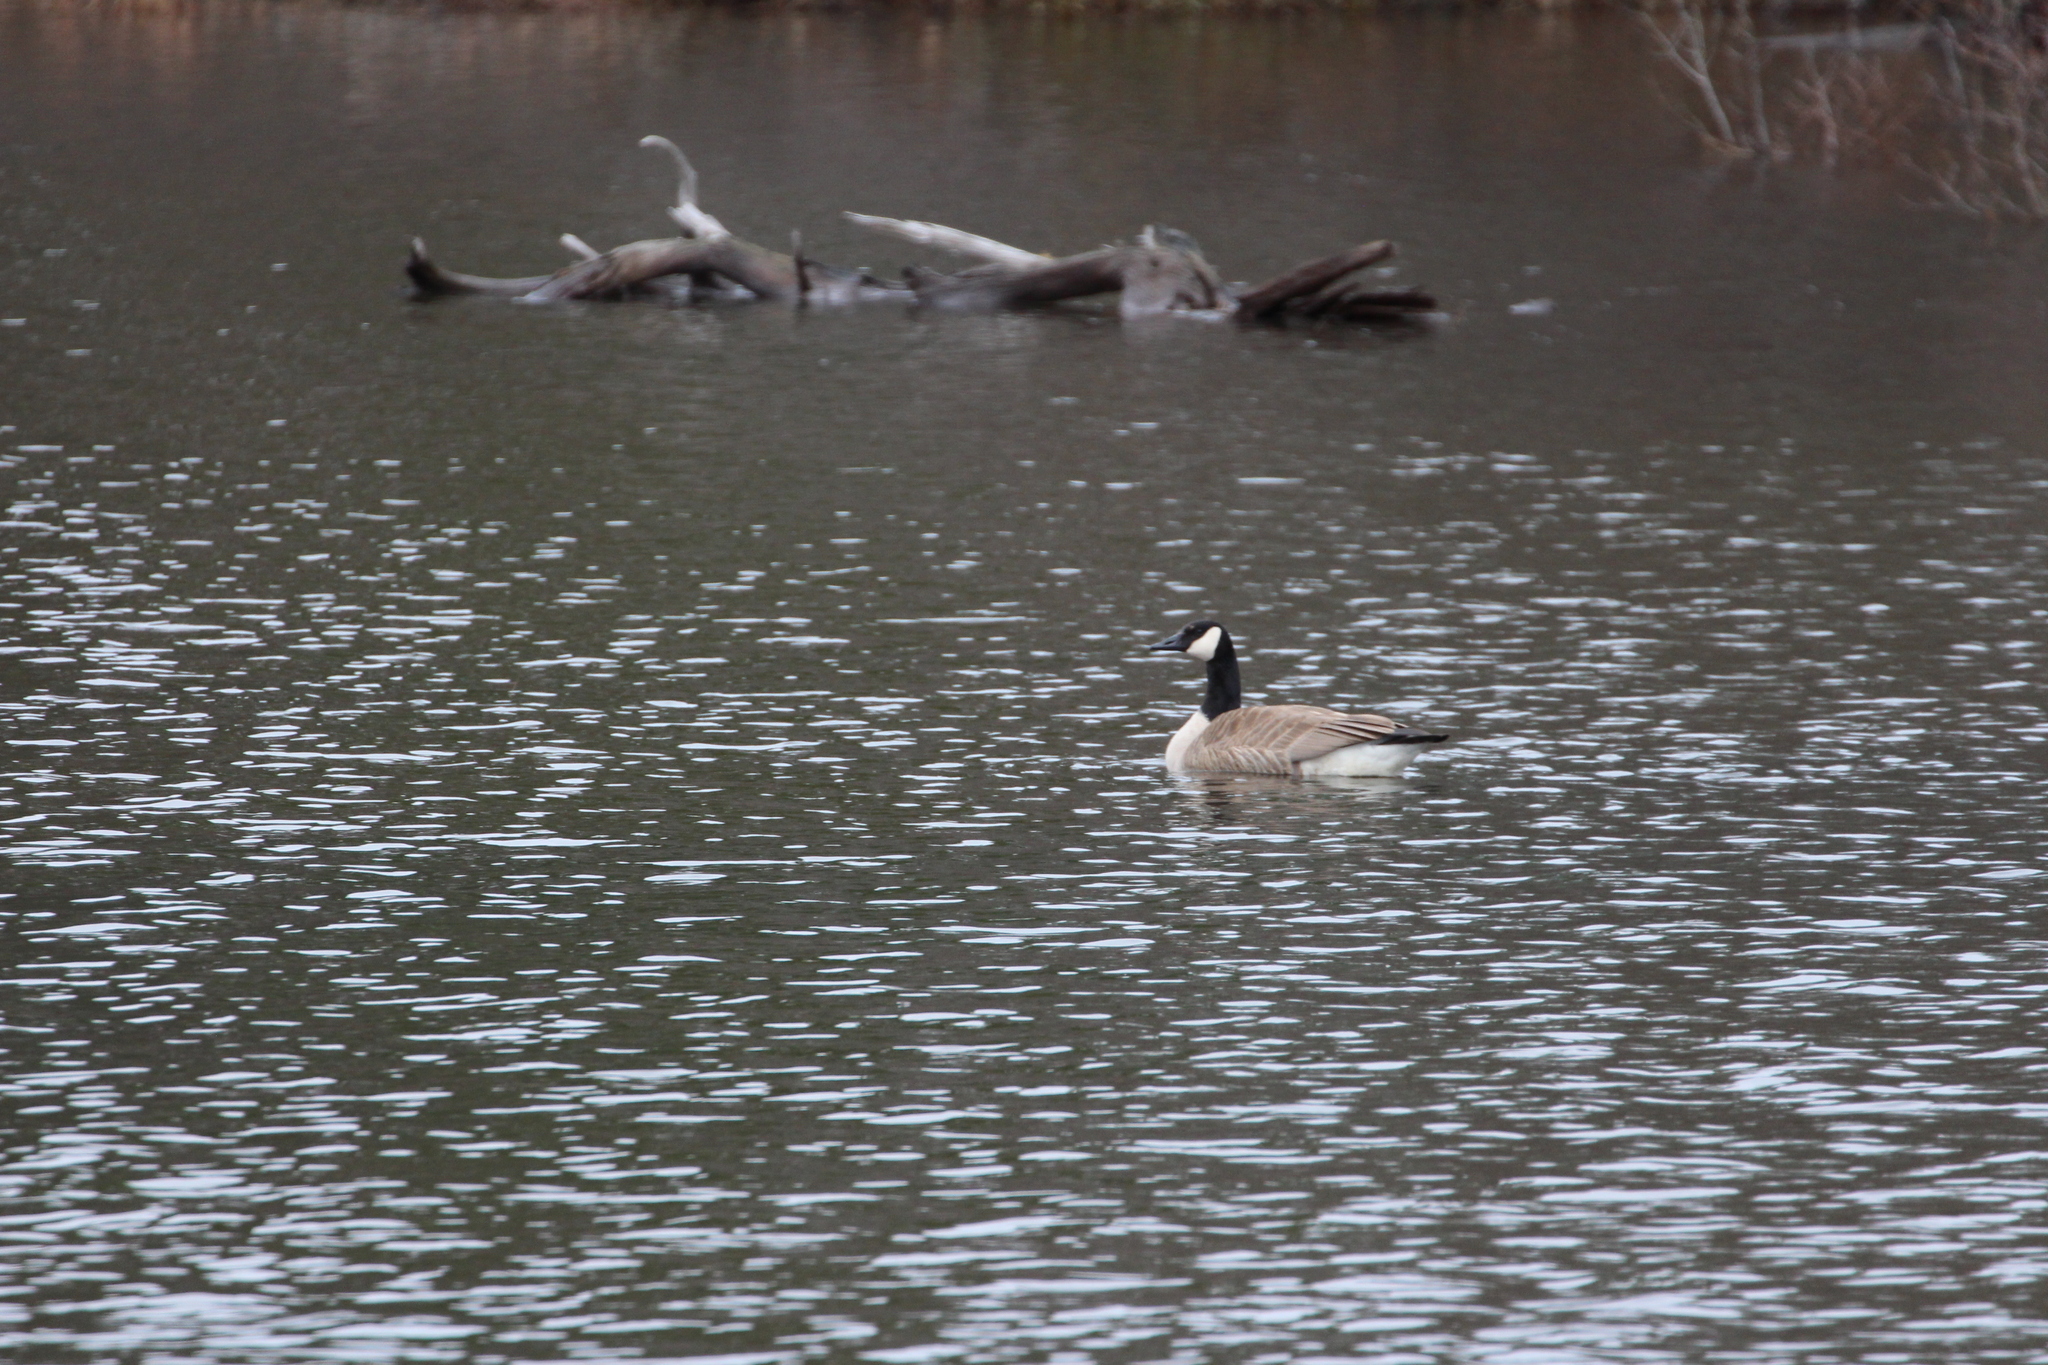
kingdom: Animalia
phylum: Chordata
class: Aves
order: Anseriformes
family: Anatidae
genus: Branta
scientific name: Branta canadensis
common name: Canada goose
